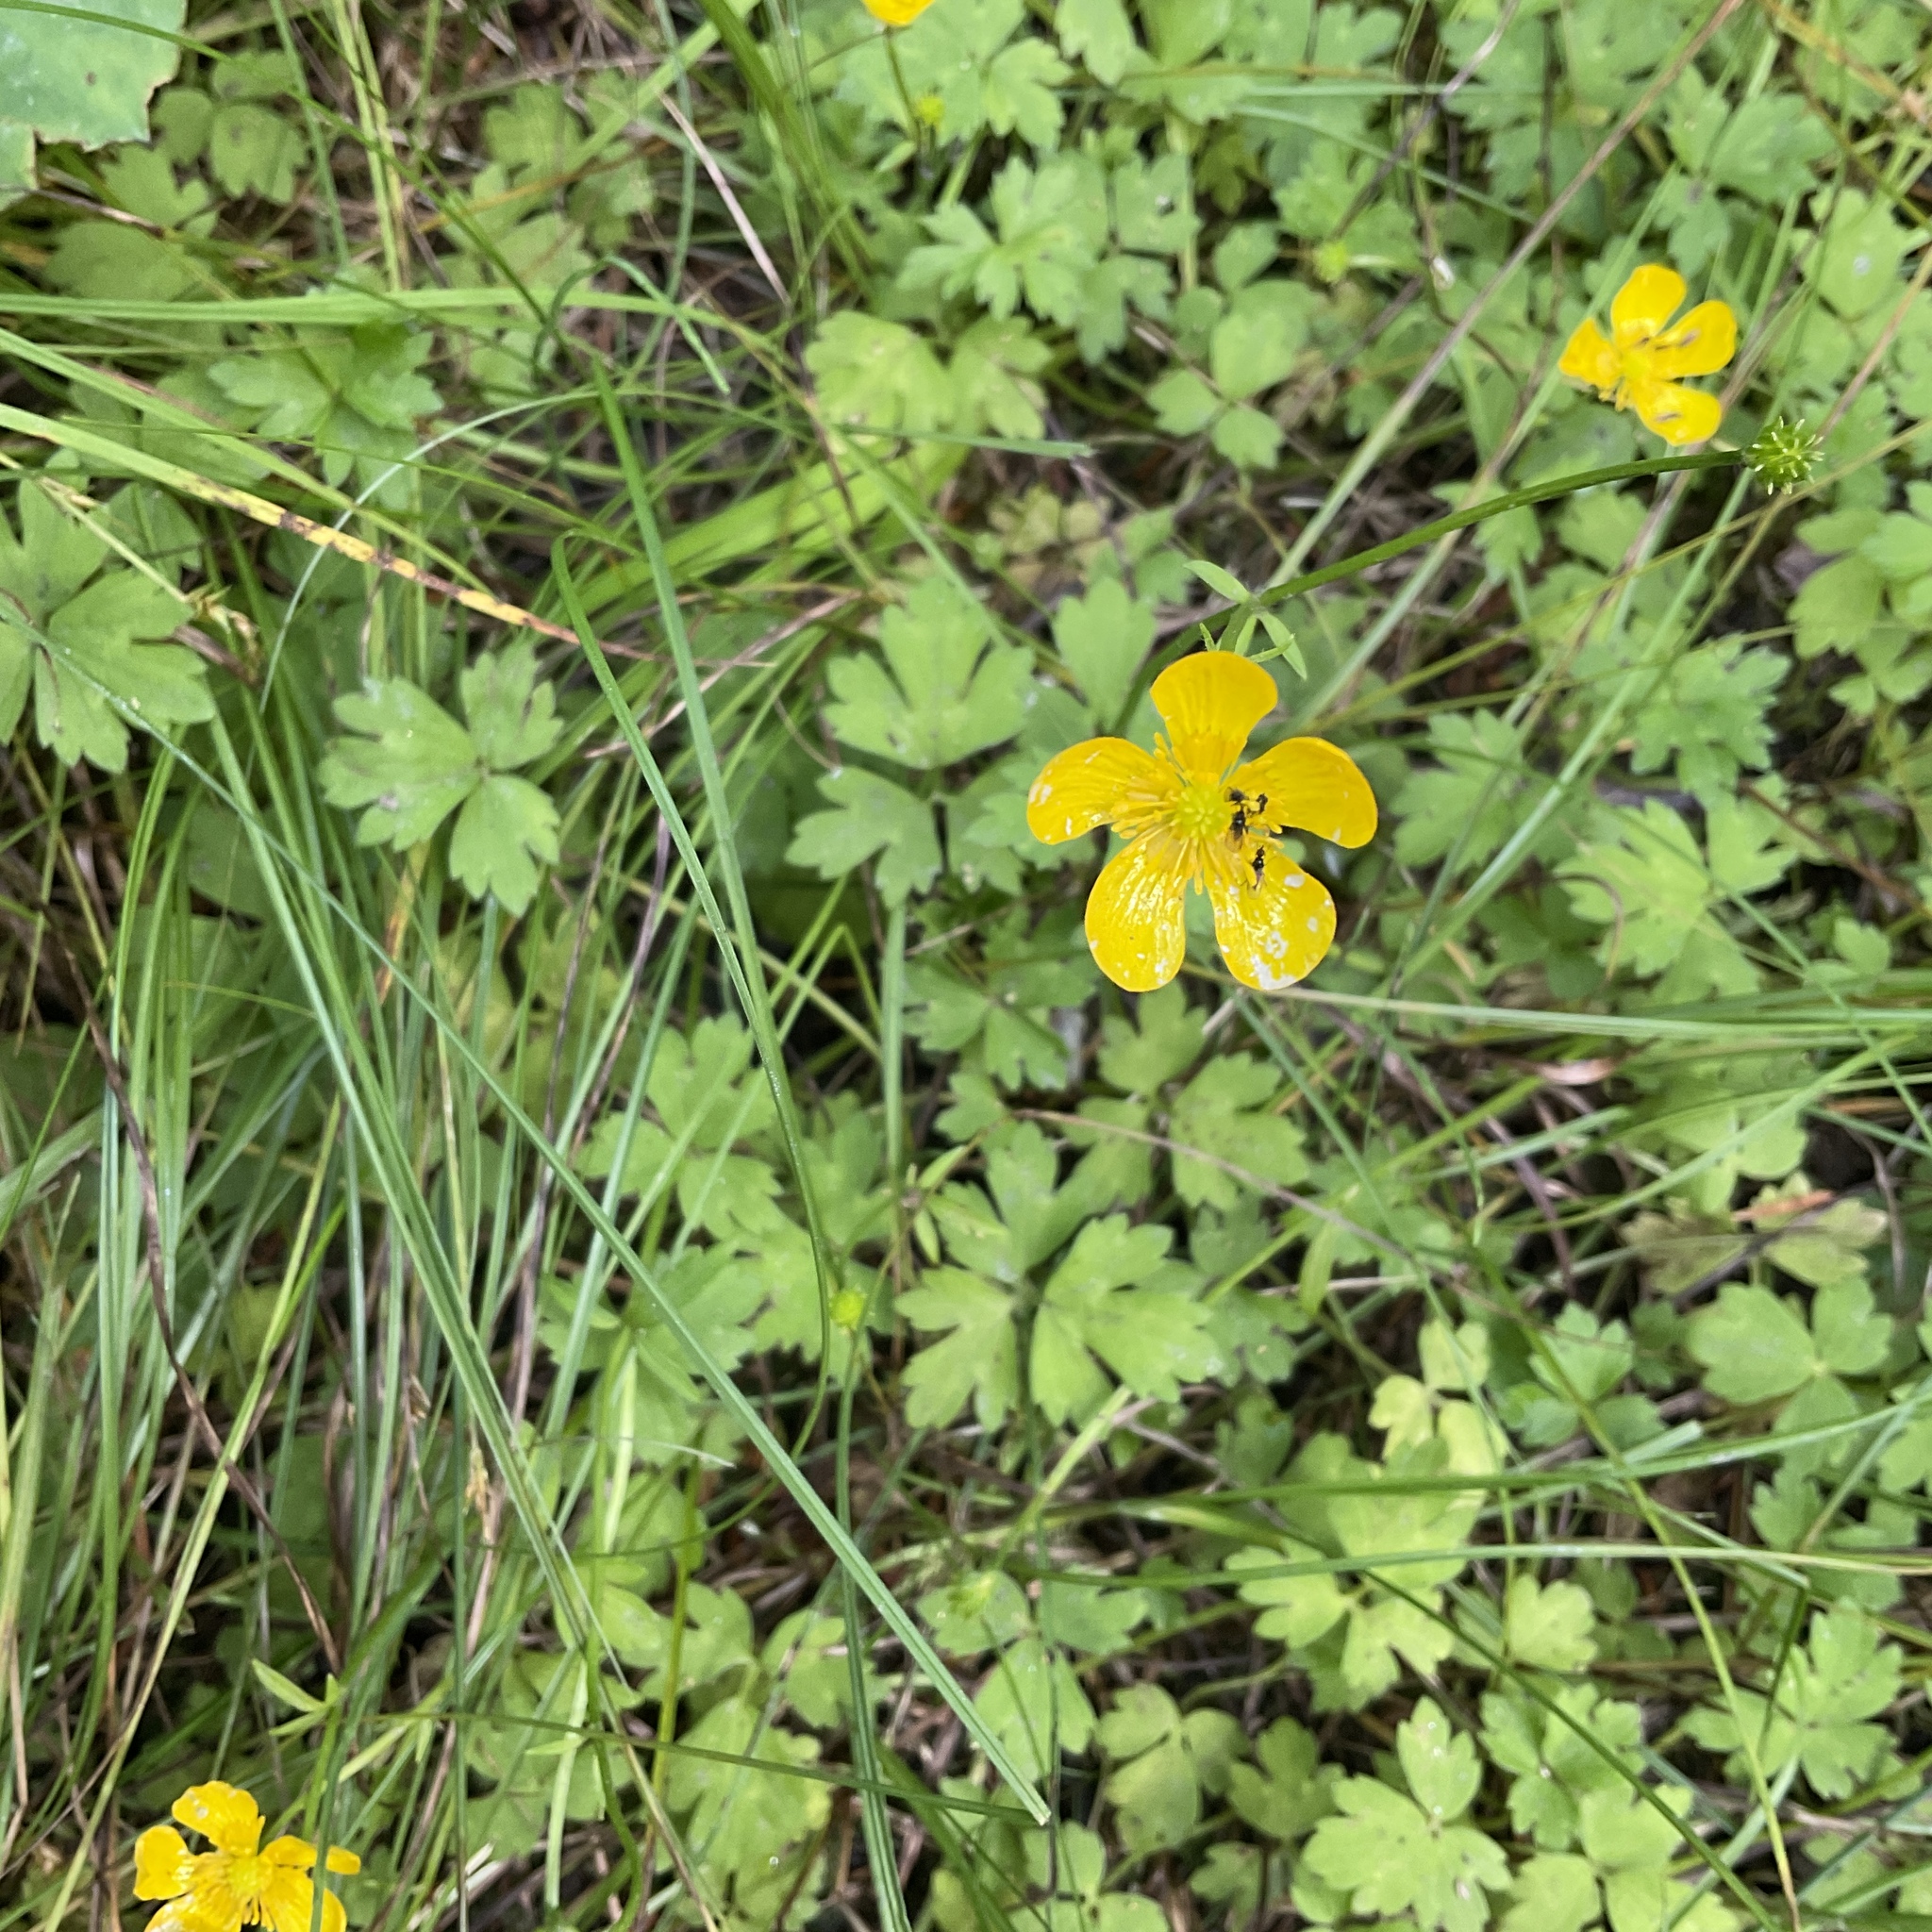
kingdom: Plantae
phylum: Tracheophyta
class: Magnoliopsida
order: Ranunculales
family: Ranunculaceae
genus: Ranunculus
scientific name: Ranunculus repens
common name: Creeping buttercup
